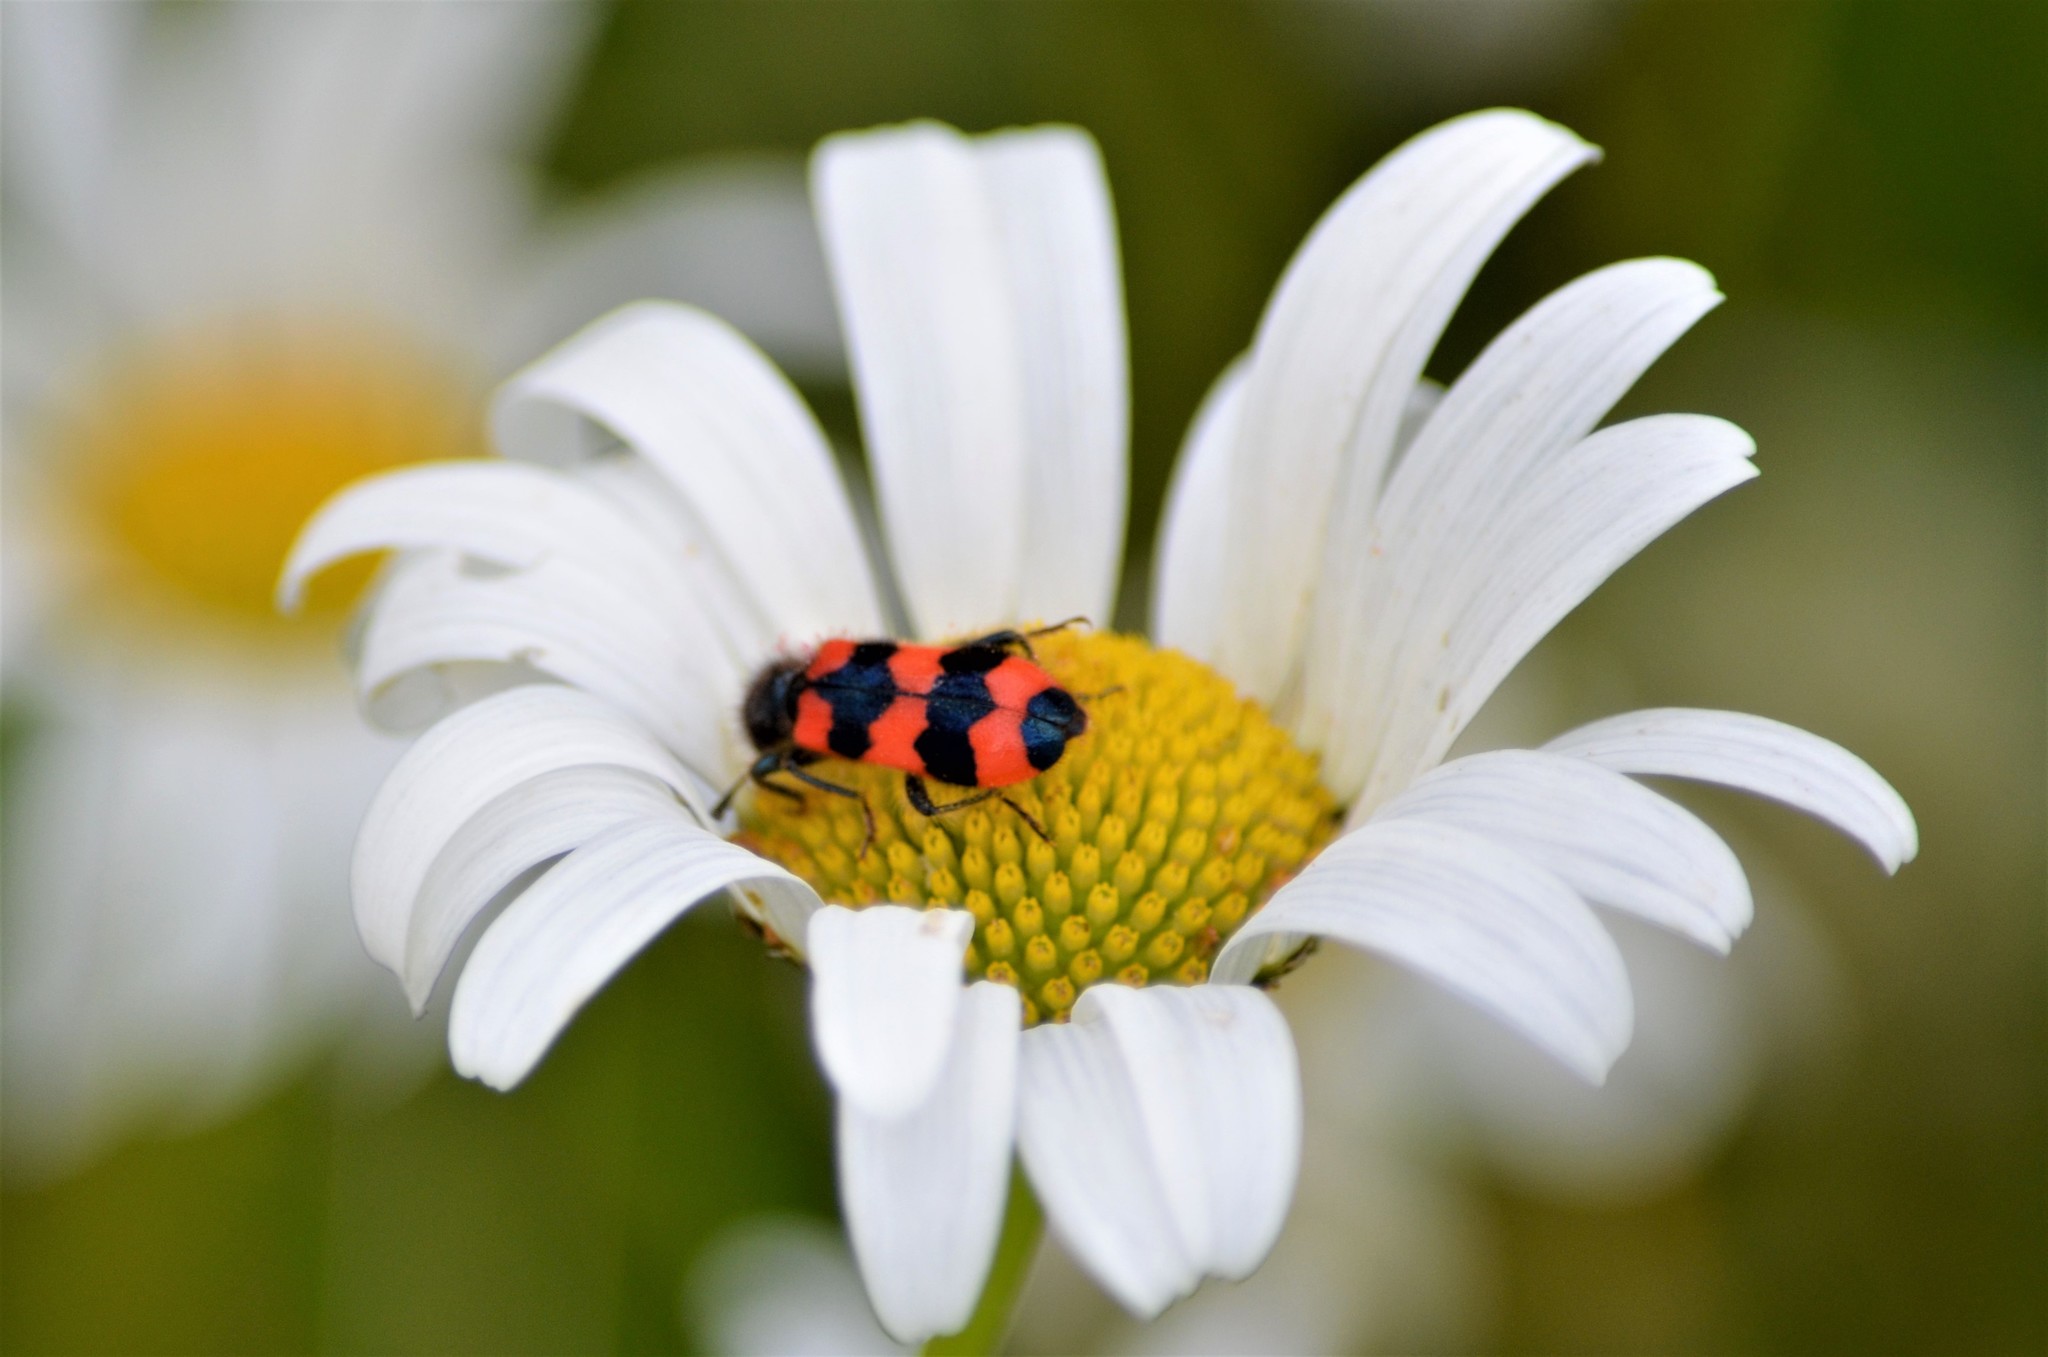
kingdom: Animalia
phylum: Arthropoda
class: Insecta
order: Coleoptera
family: Cleridae
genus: Trichodes
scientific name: Trichodes apiarius
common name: Bee-eating beetle
